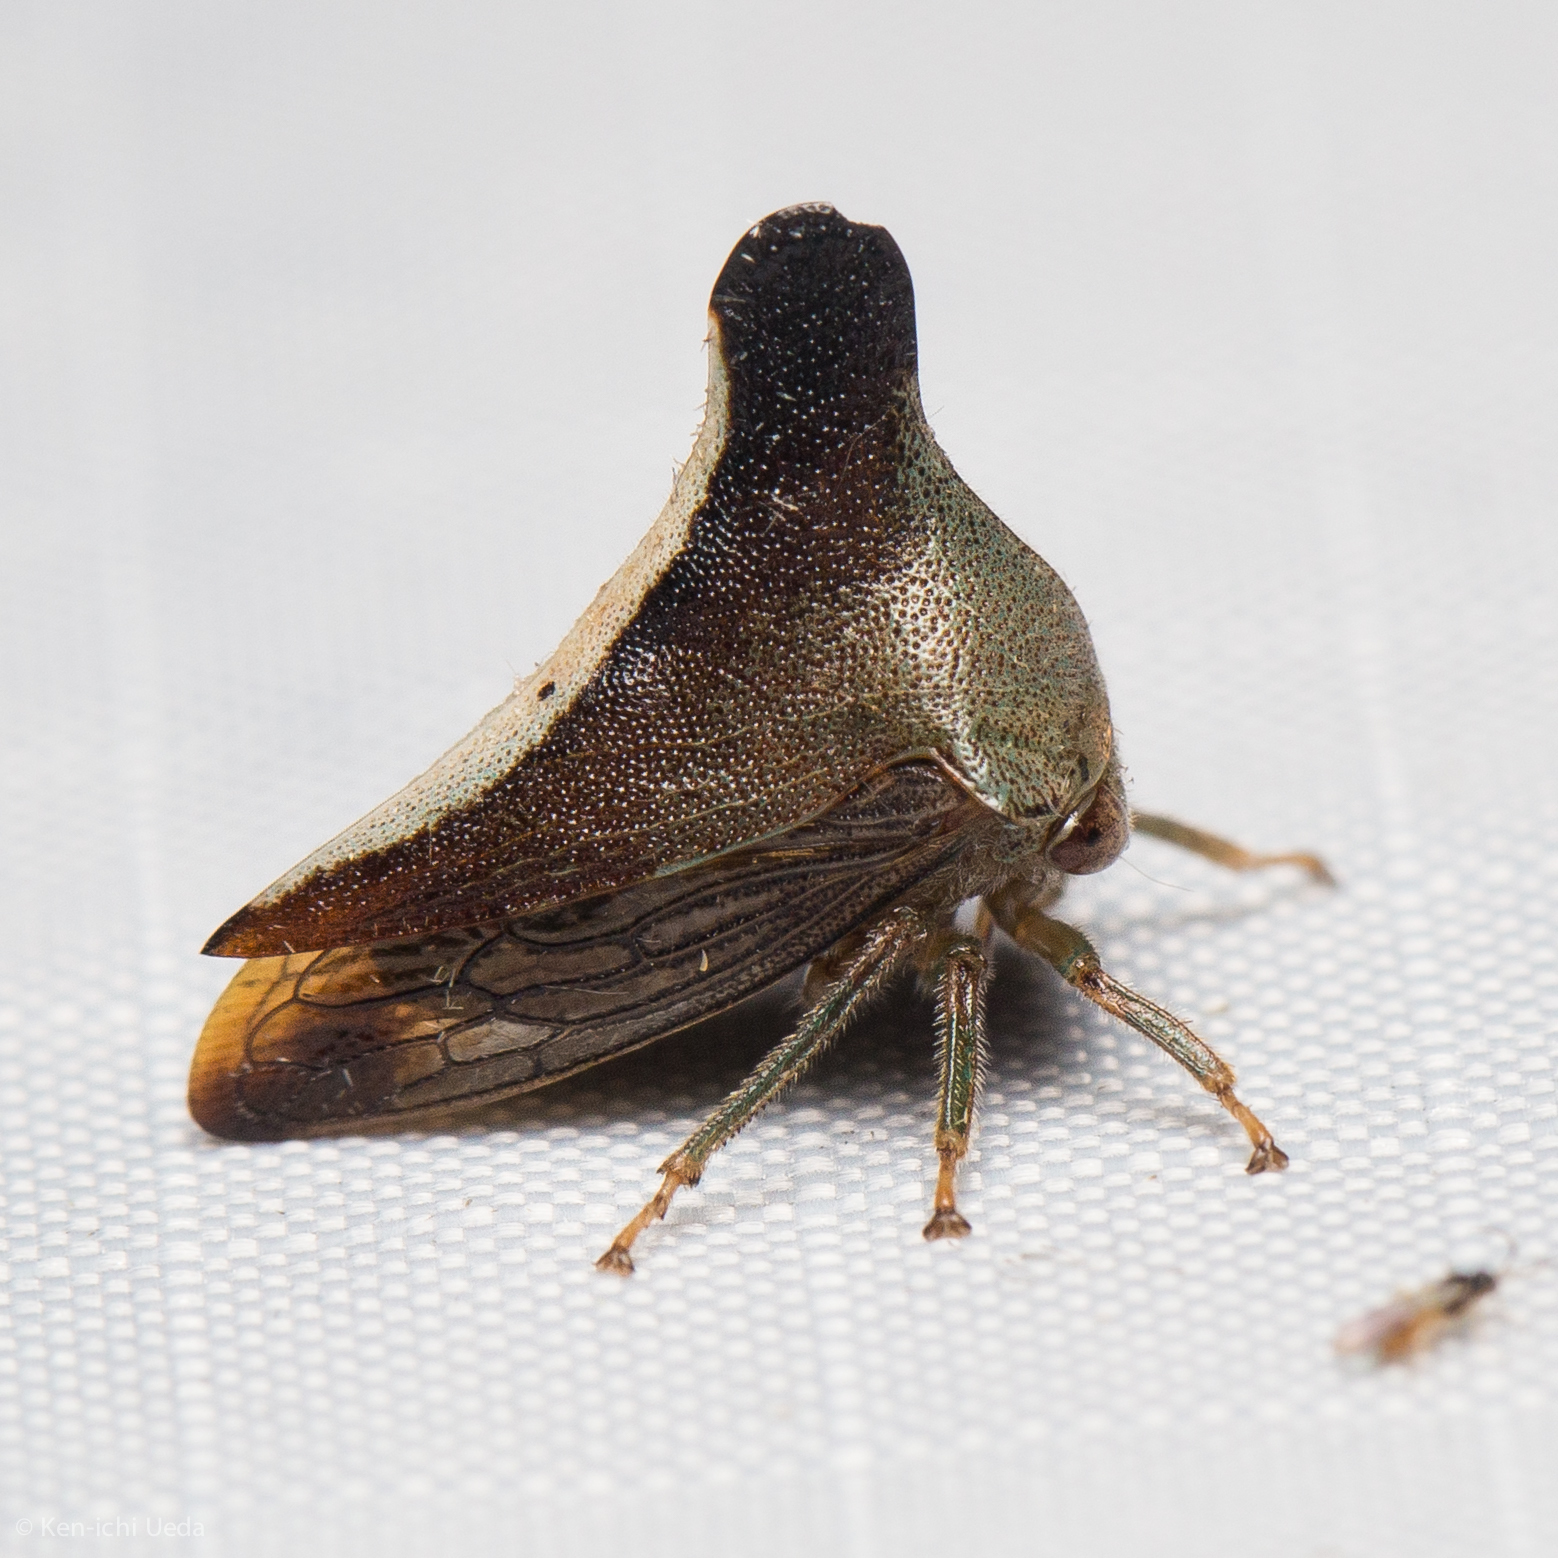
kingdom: Animalia
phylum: Arthropoda
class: Insecta
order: Hemiptera
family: Membracidae
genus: Glossonotus
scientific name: Glossonotus univittatus
